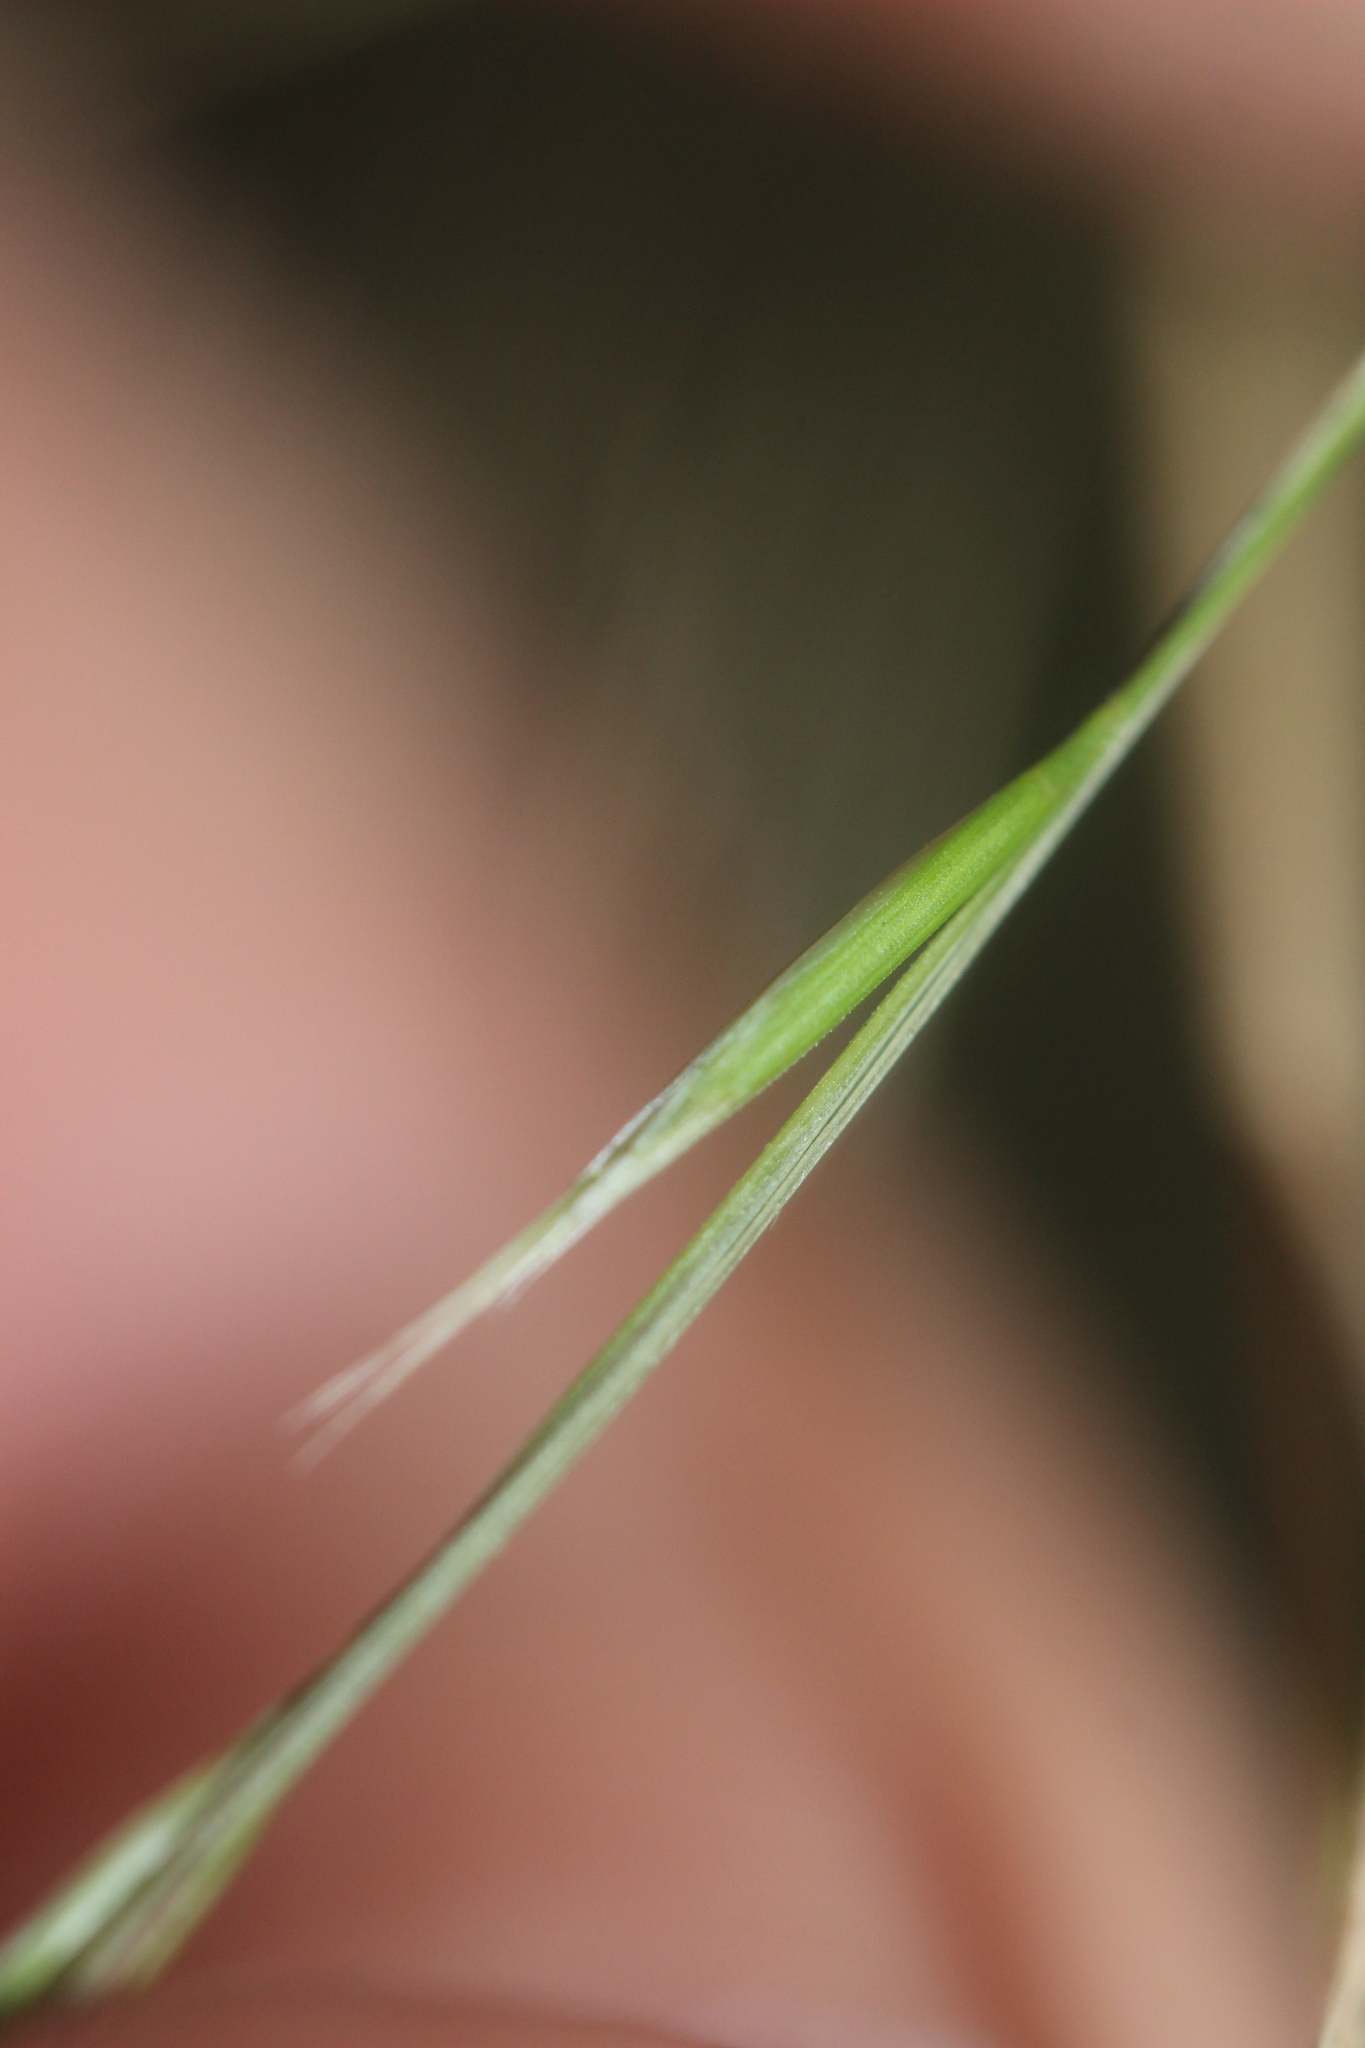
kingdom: Plantae
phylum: Tracheophyta
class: Liliopsida
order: Poales
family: Poaceae
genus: Microlaena
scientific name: Microlaena stipoides
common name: Meadow ricegrass
